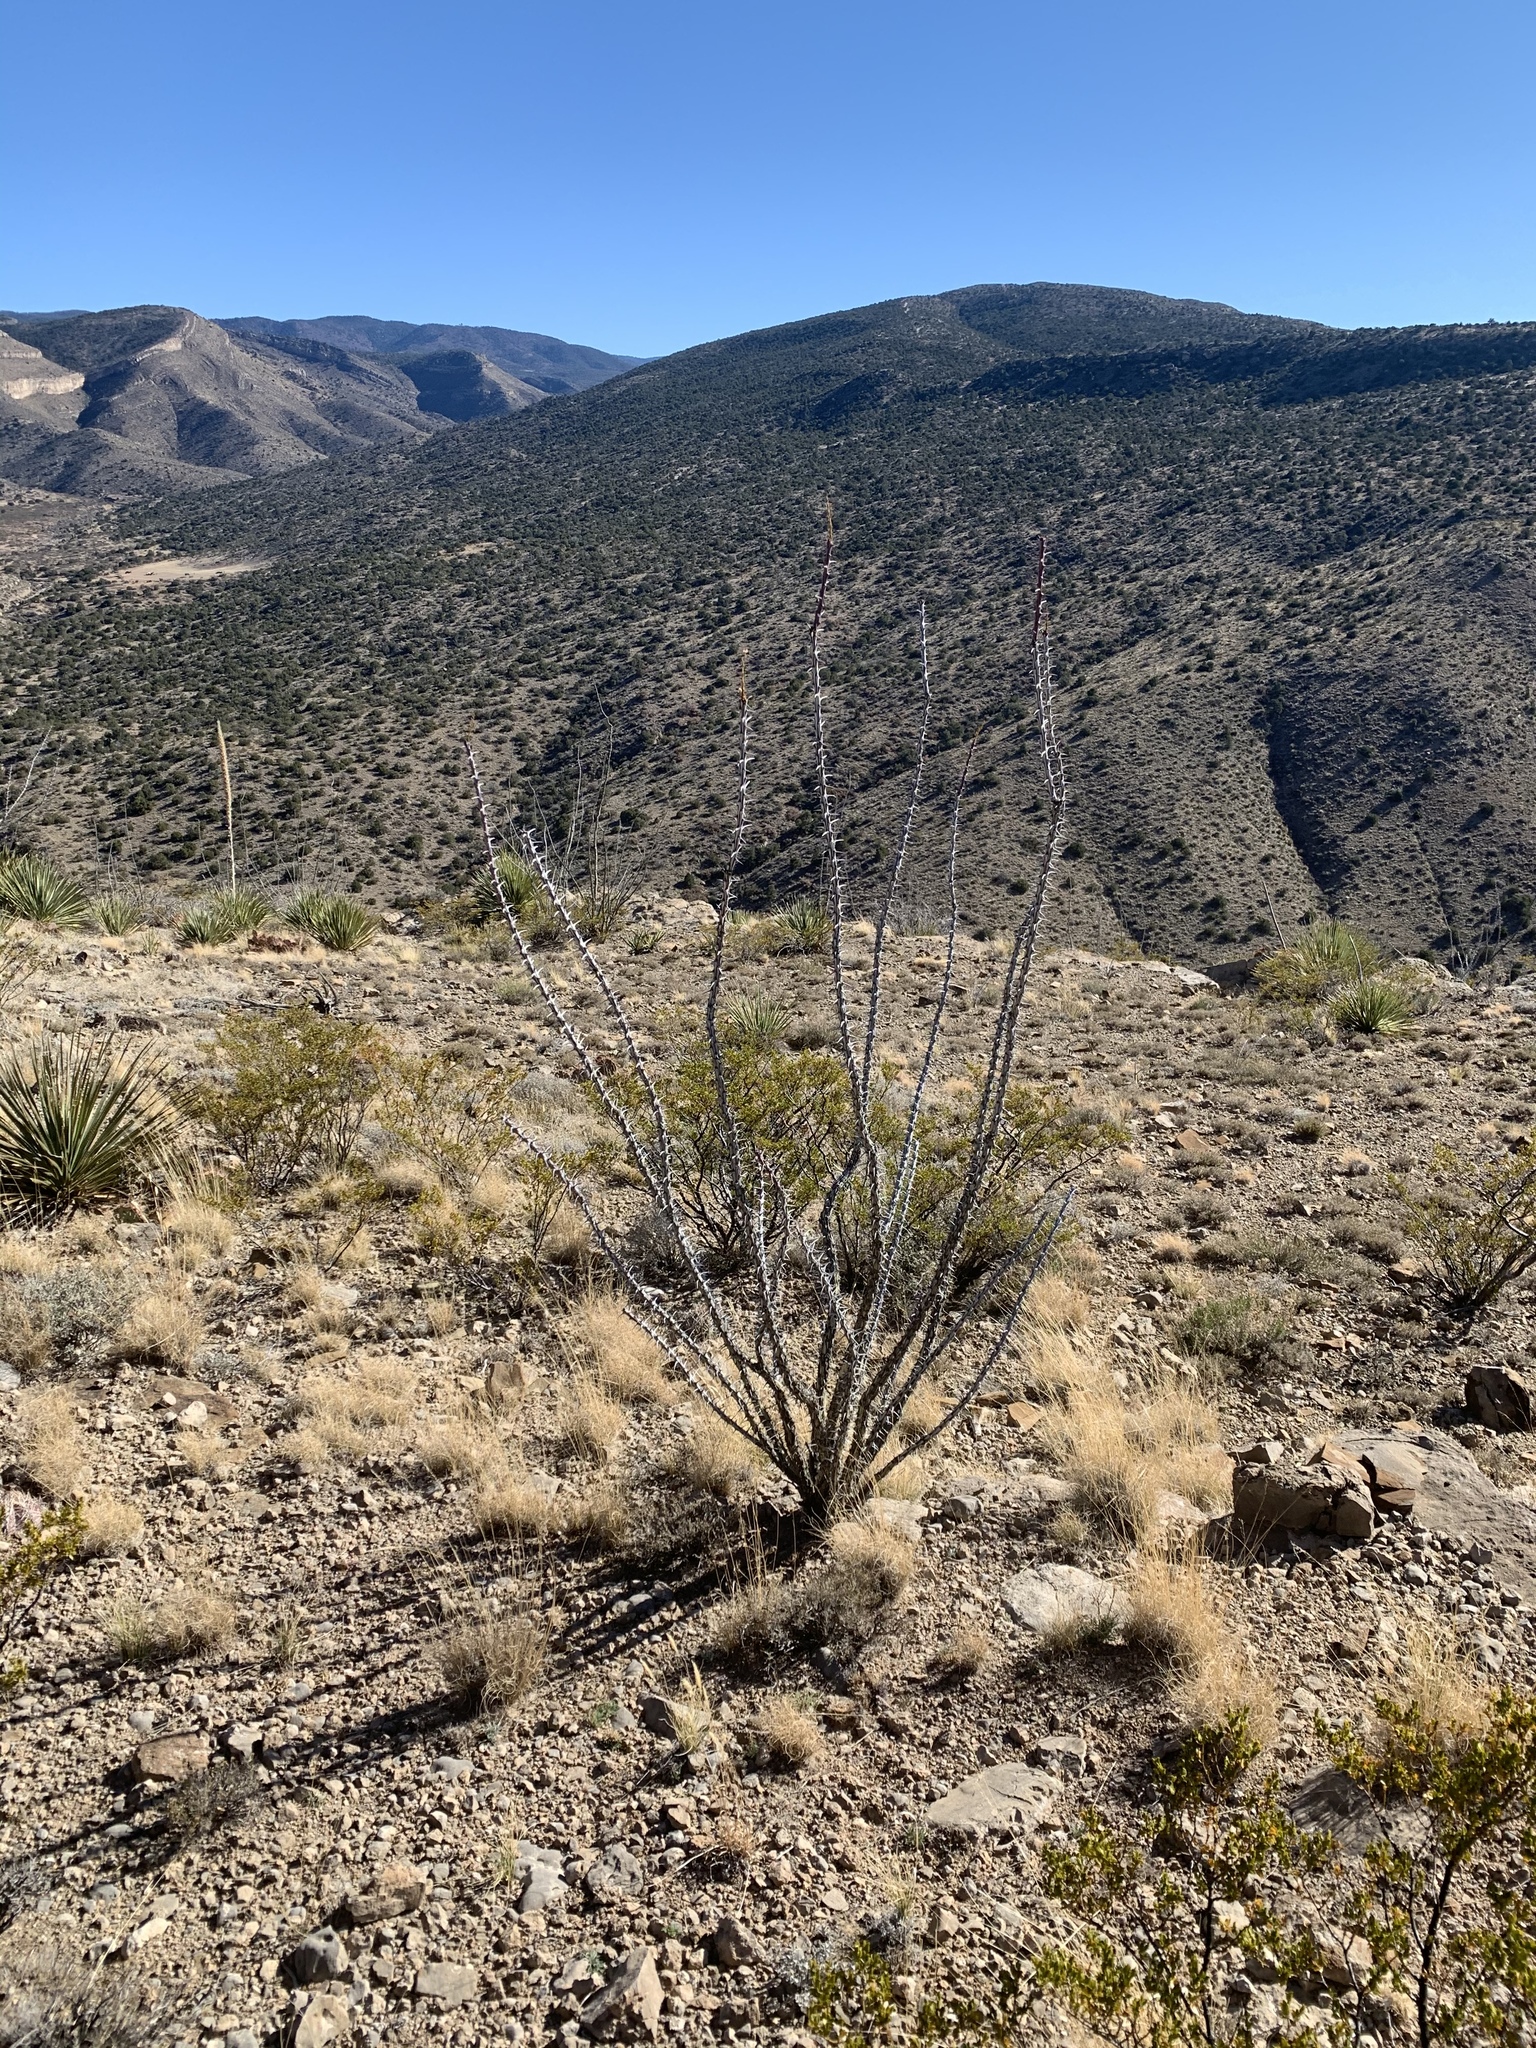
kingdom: Plantae
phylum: Tracheophyta
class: Magnoliopsida
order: Ericales
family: Fouquieriaceae
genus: Fouquieria
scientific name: Fouquieria splendens
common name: Vine-cactus
